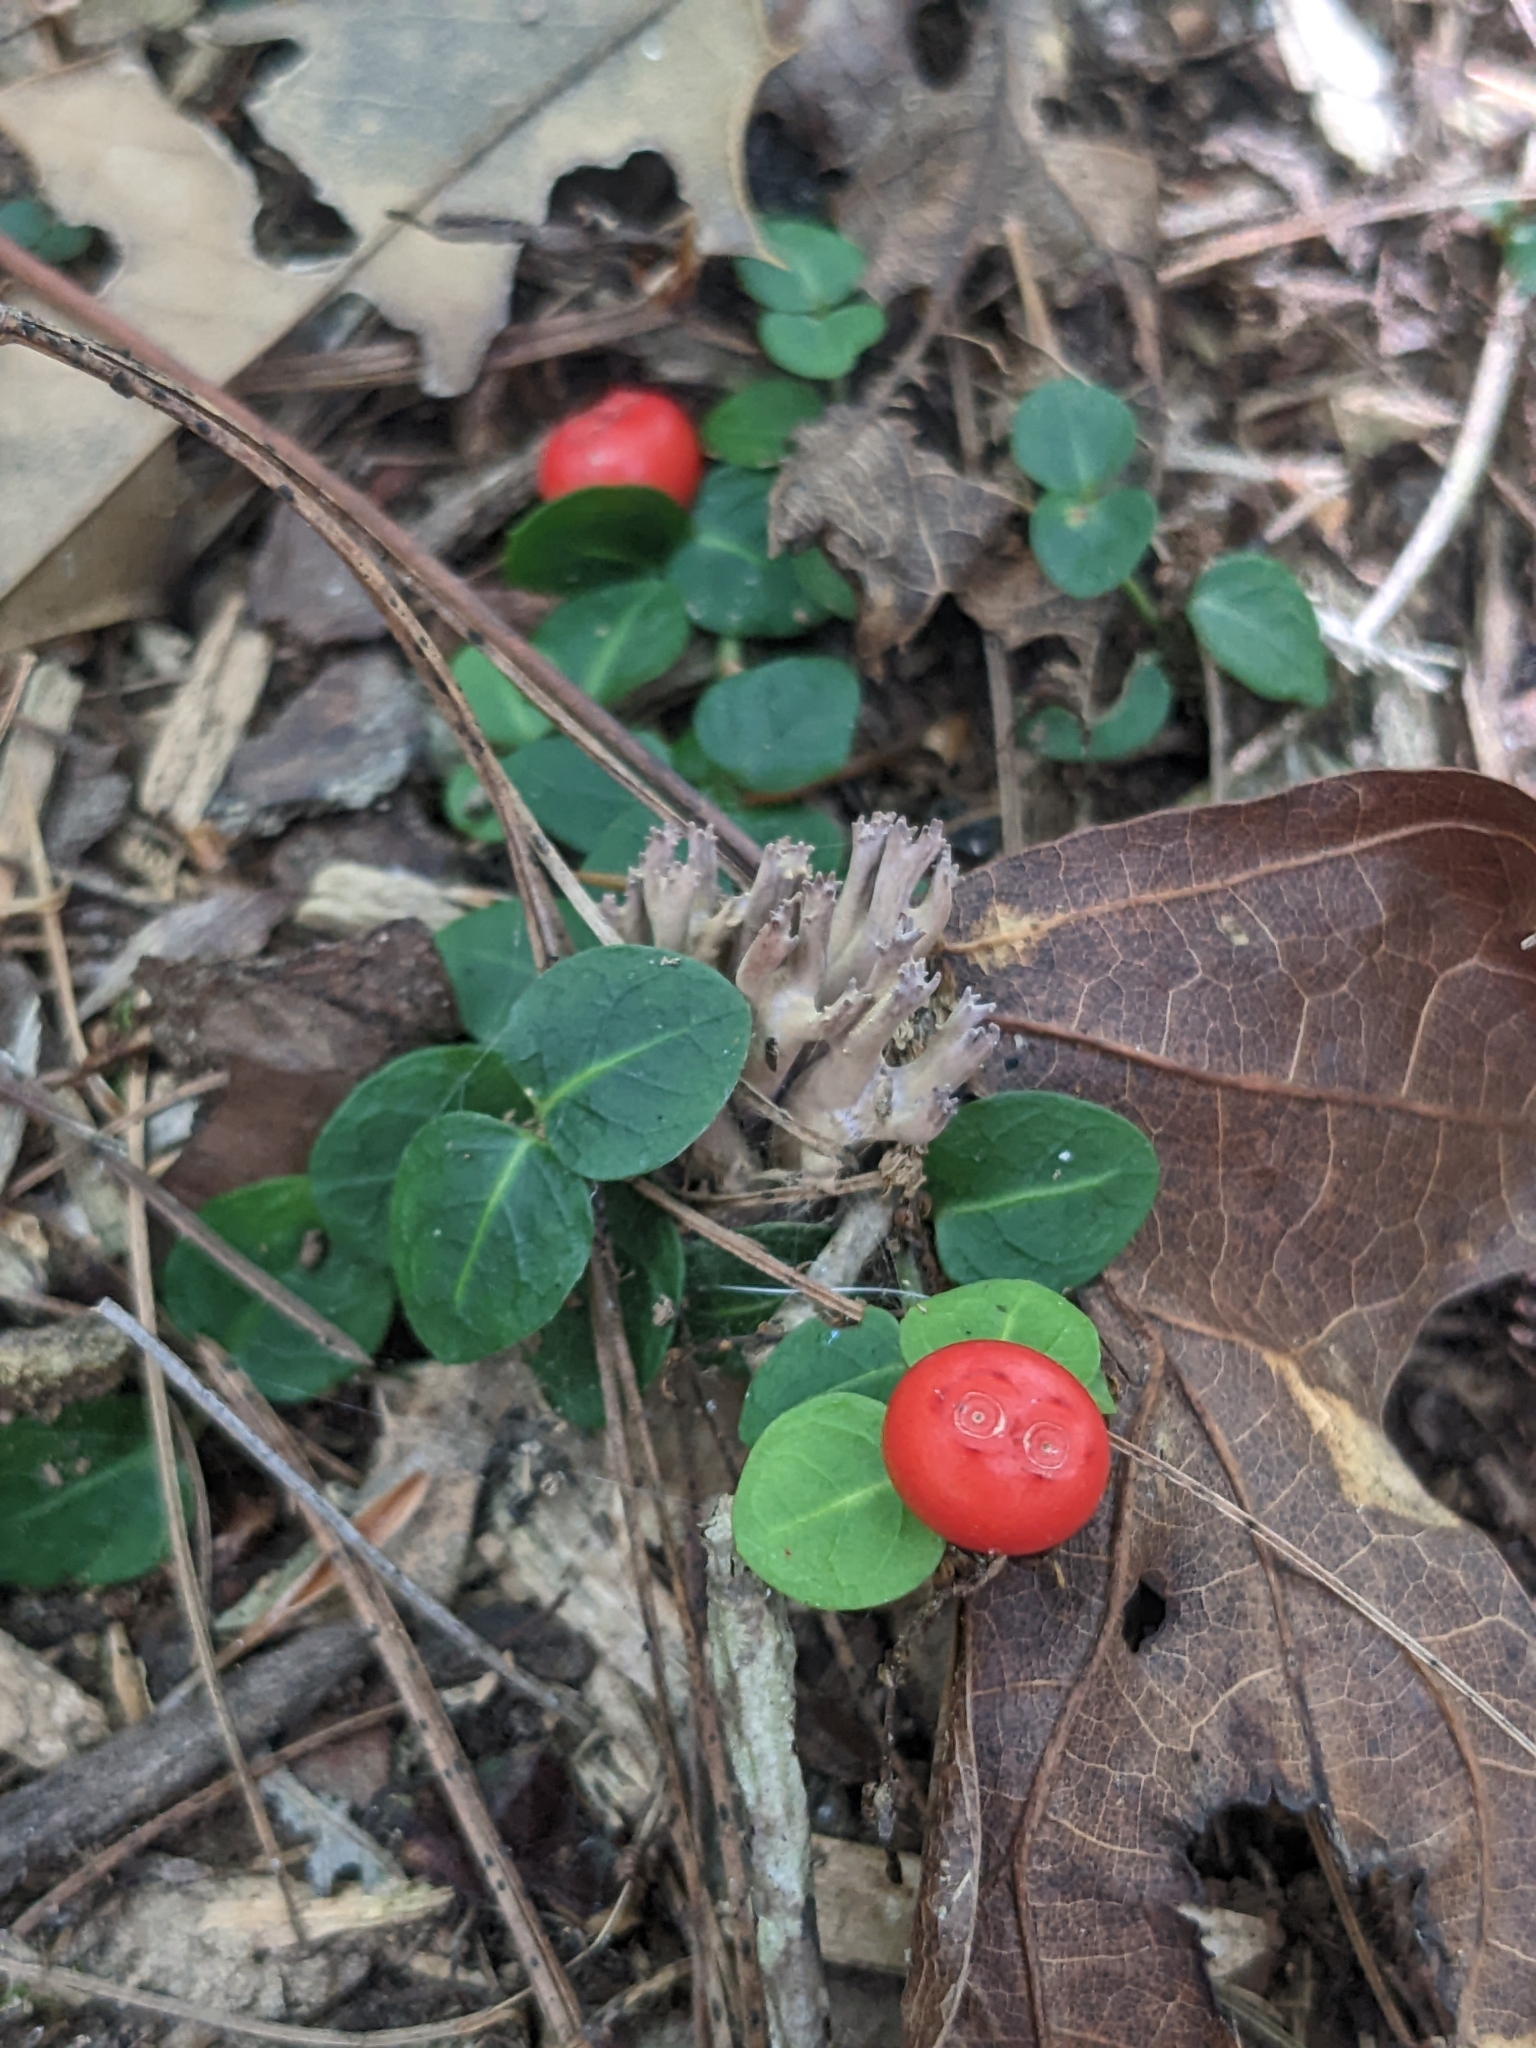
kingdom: Plantae
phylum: Tracheophyta
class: Magnoliopsida
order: Gentianales
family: Rubiaceae
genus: Mitchella
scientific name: Mitchella repens
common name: Partridge-berry
